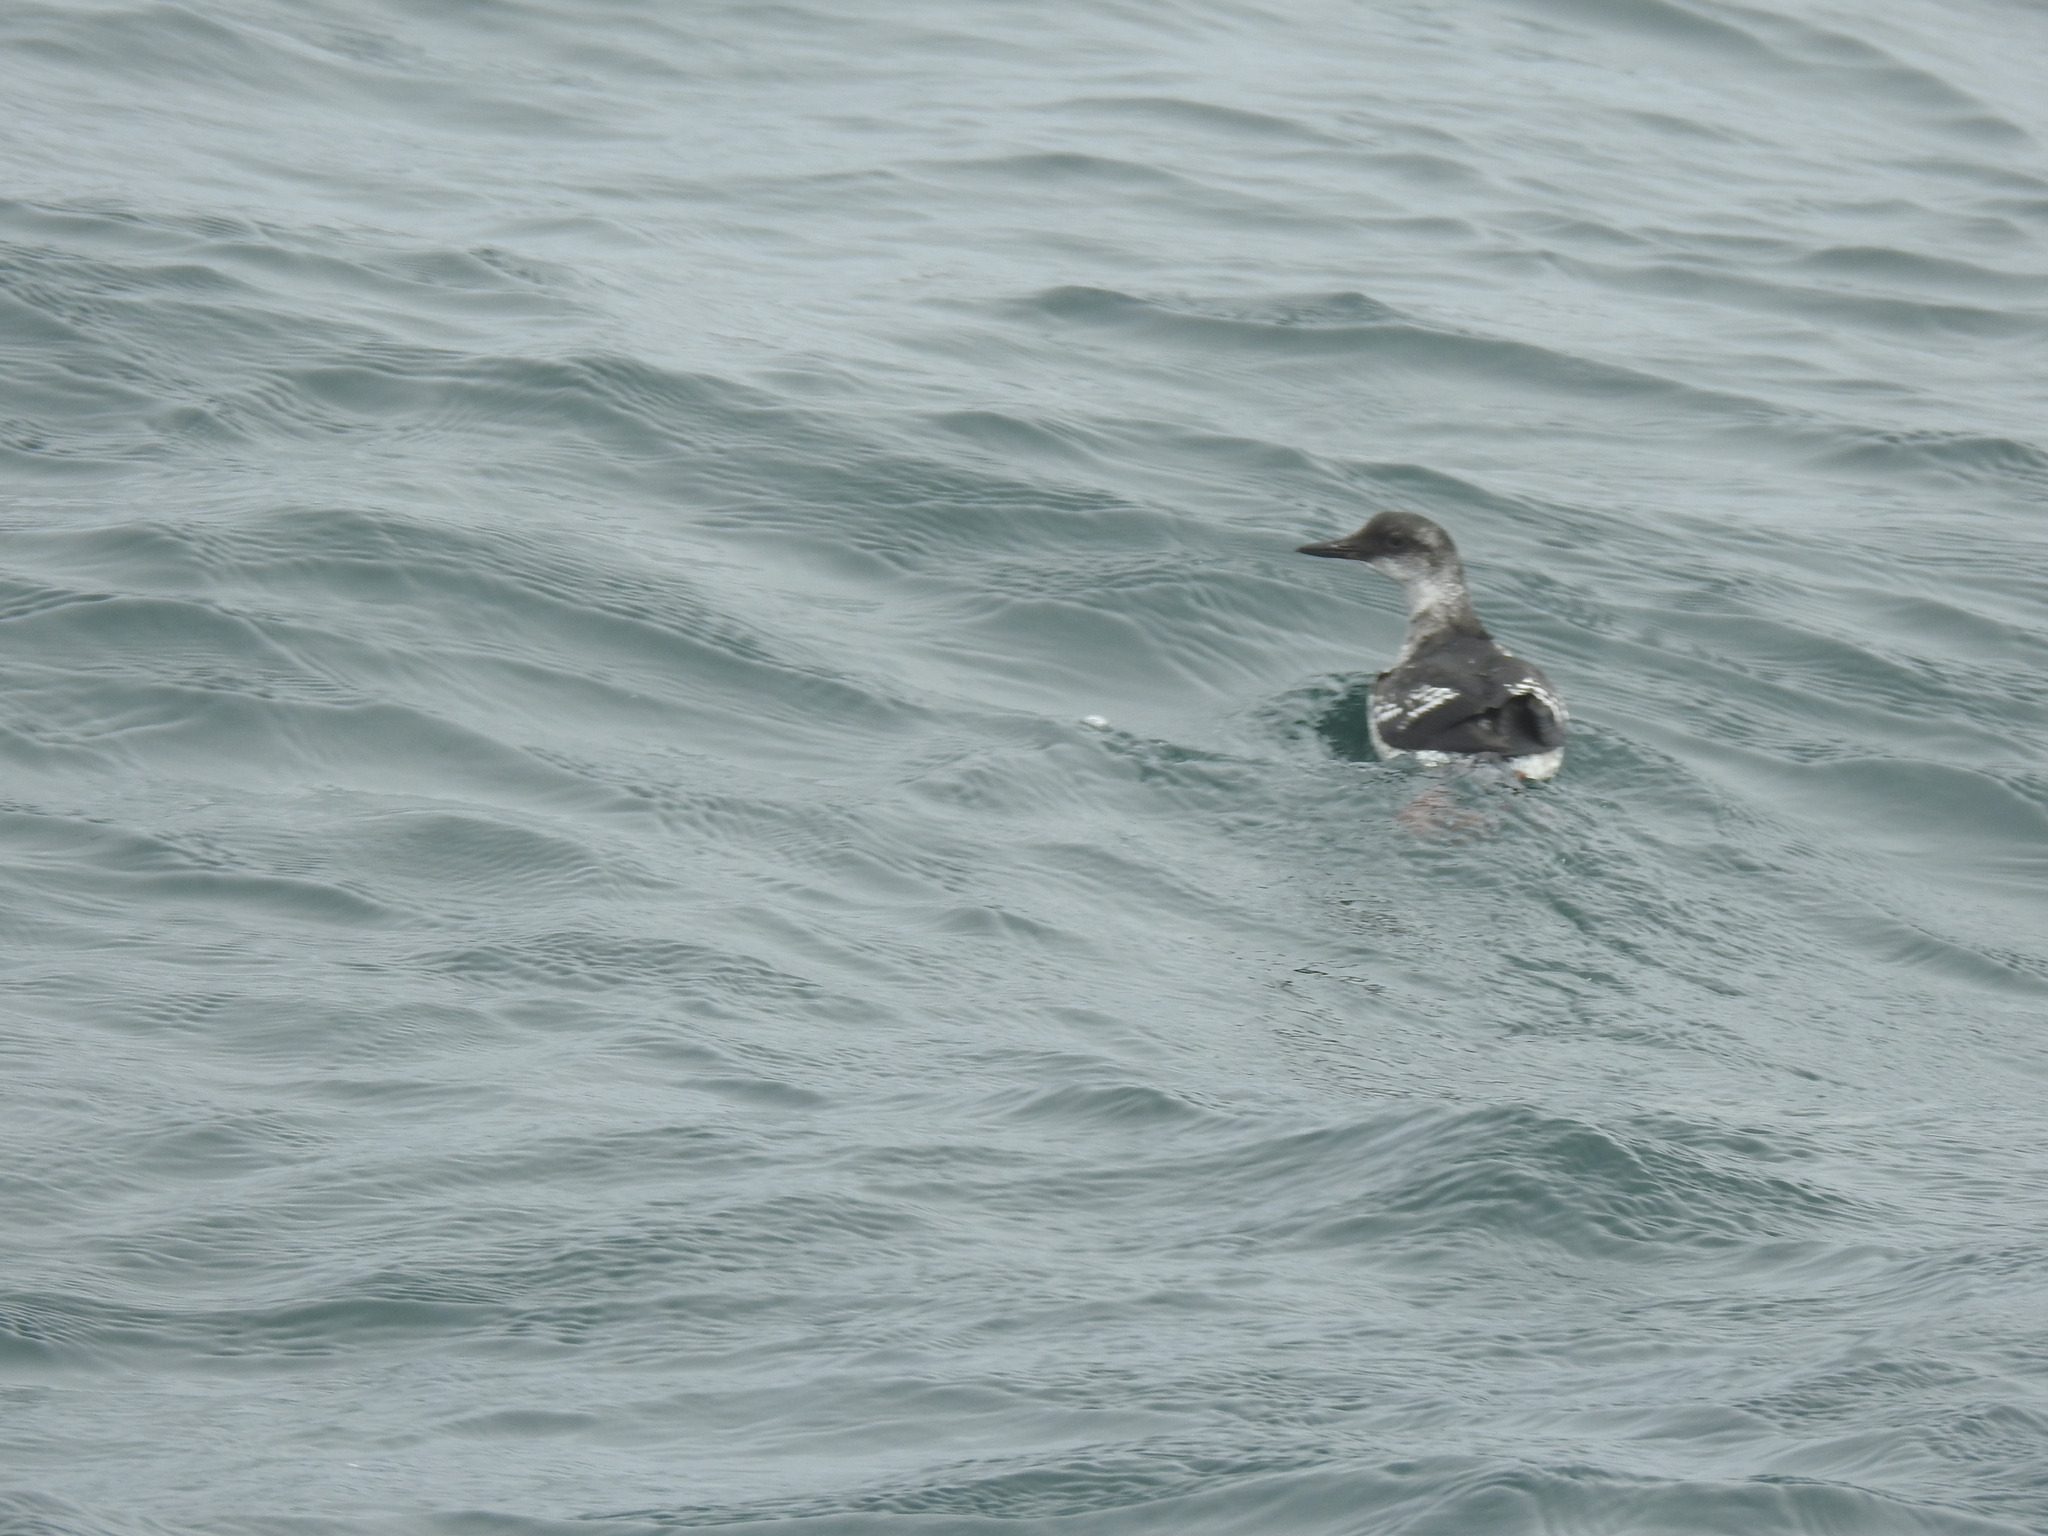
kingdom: Animalia
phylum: Chordata
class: Aves
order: Charadriiformes
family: Alcidae
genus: Cepphus
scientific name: Cepphus columba
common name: Pigeon guillemot
